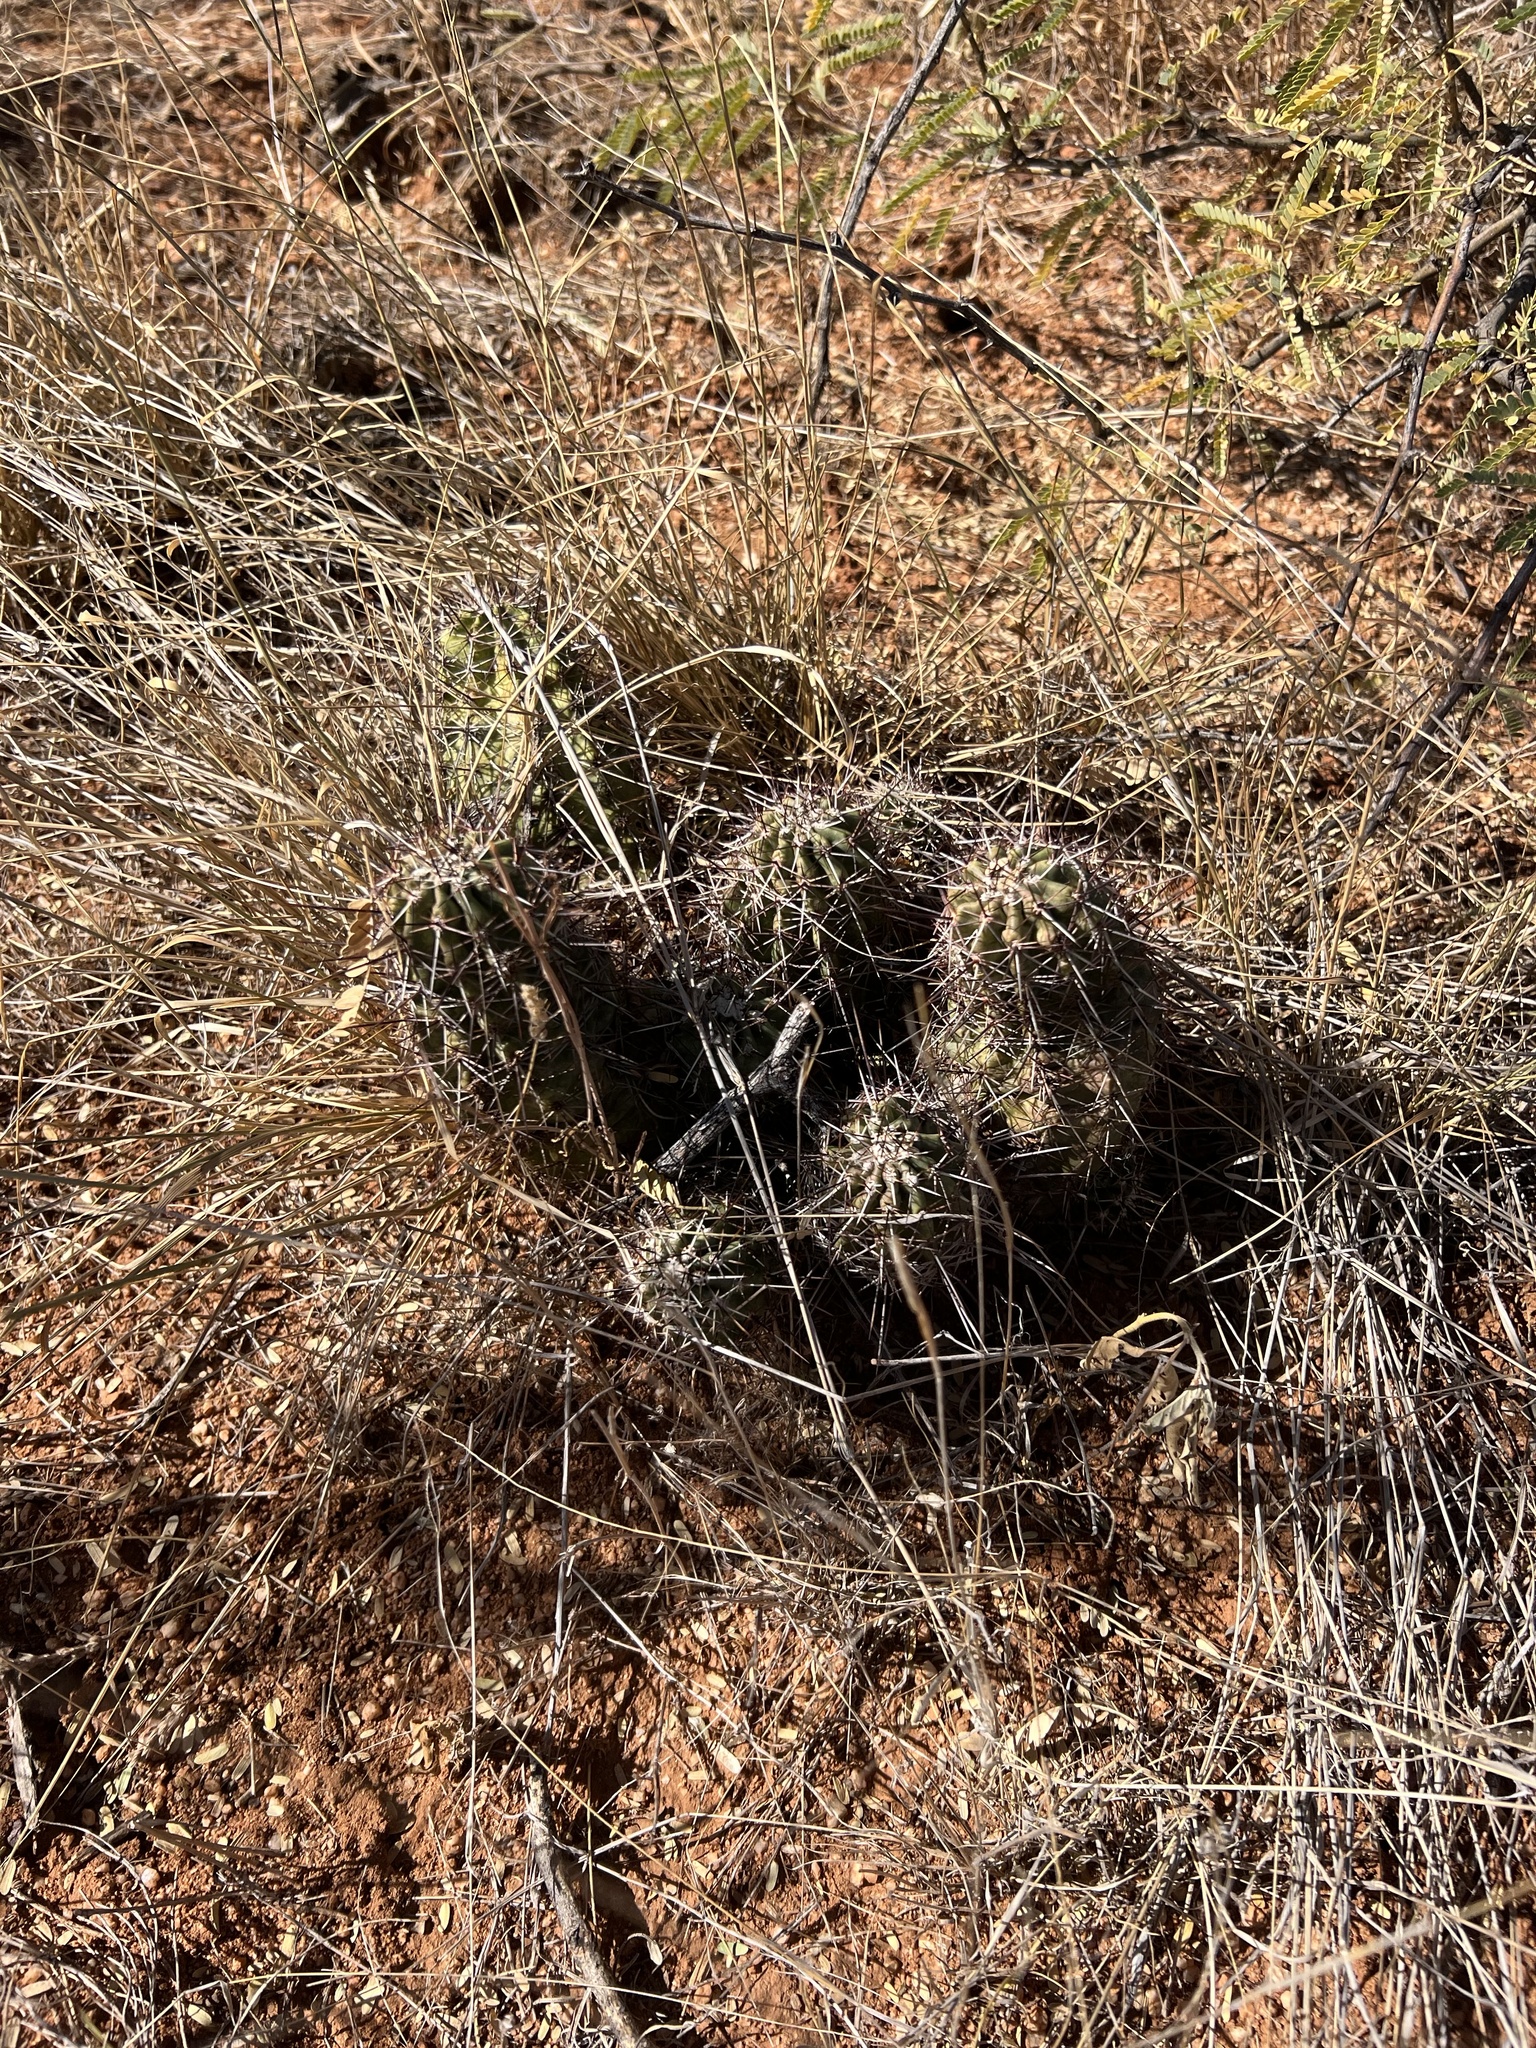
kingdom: Plantae
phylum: Tracheophyta
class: Magnoliopsida
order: Caryophyllales
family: Cactaceae
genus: Echinocereus
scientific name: Echinocereus fasciculatus
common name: Bundle hedgehog
